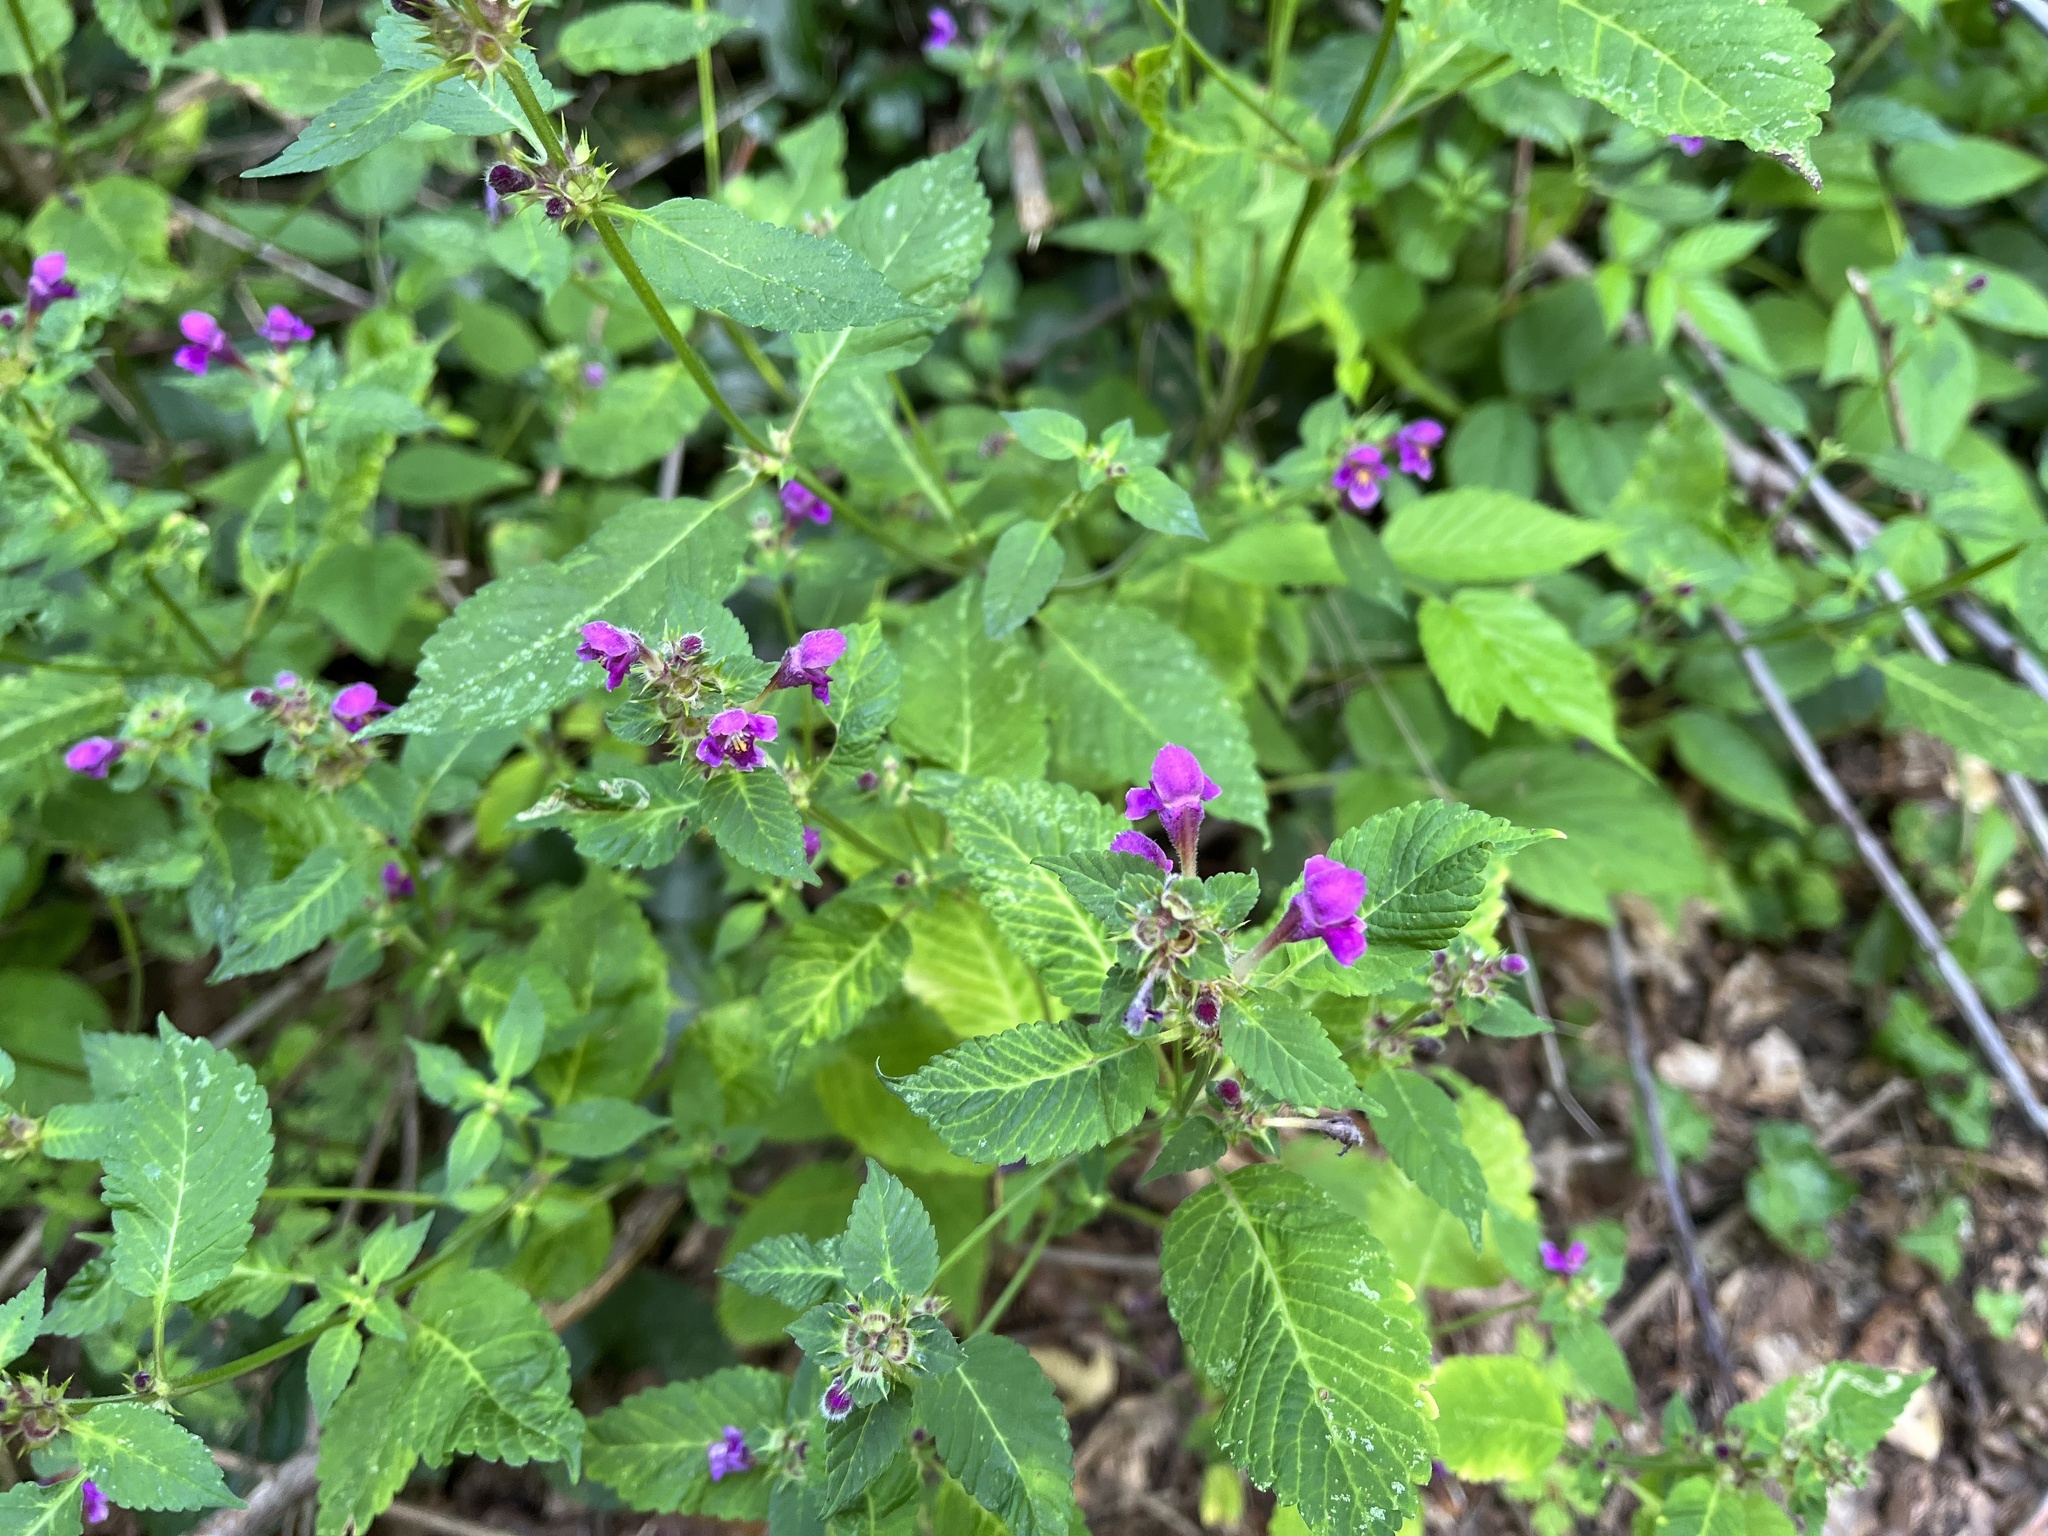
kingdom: Plantae
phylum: Tracheophyta
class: Magnoliopsida
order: Lamiales
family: Lamiaceae
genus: Galeopsis
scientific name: Galeopsis pubescens
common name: Downy hemp-nettle
